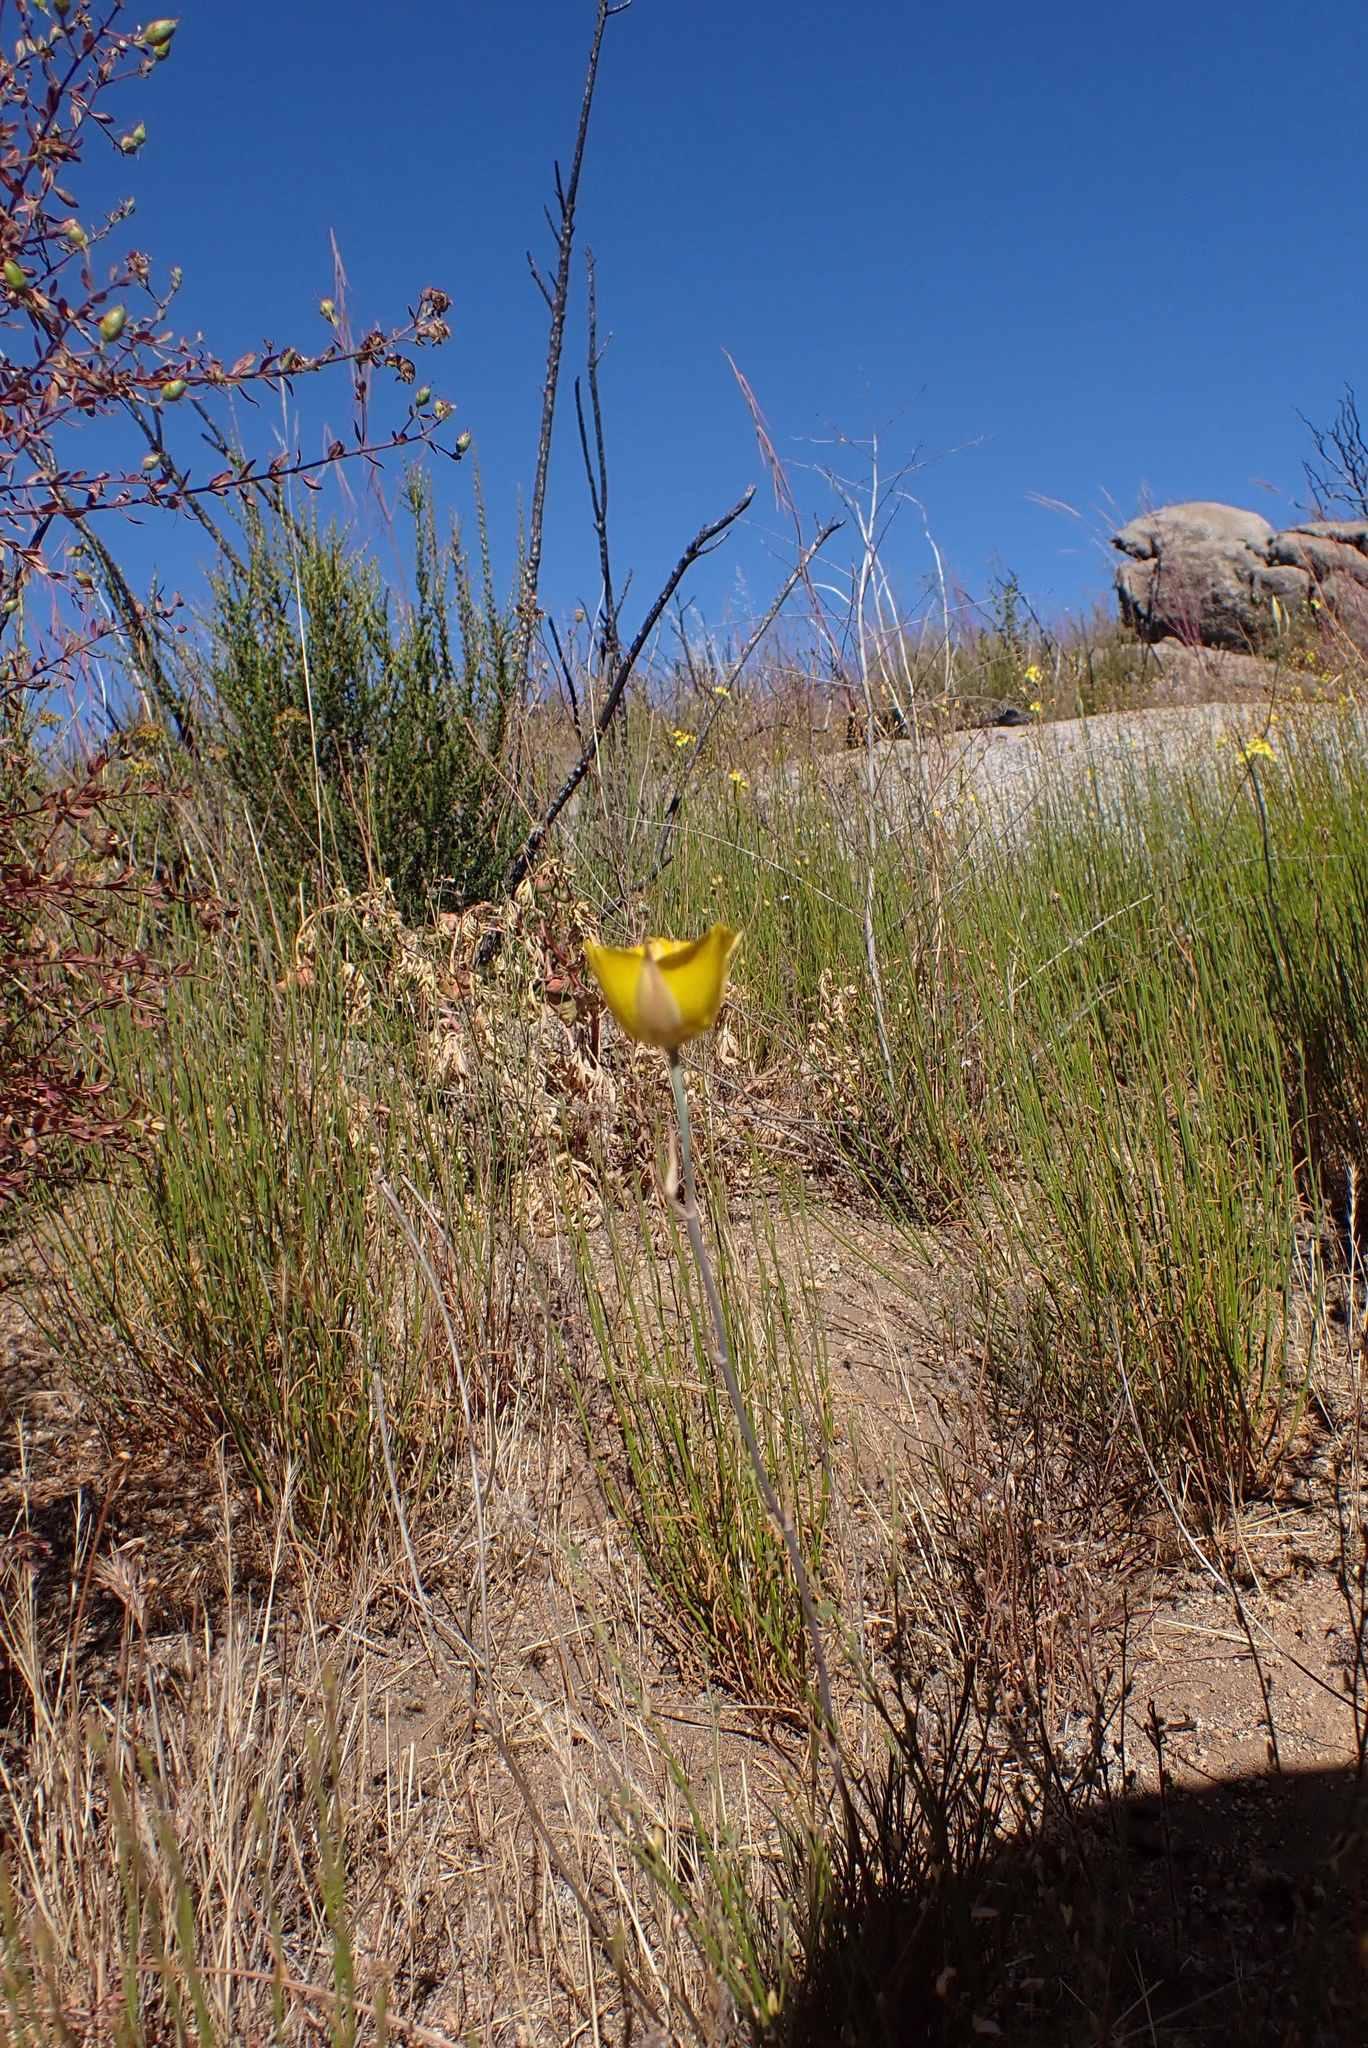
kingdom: Plantae
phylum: Tracheophyta
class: Liliopsida
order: Liliales
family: Liliaceae
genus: Calochortus
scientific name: Calochortus concolor
